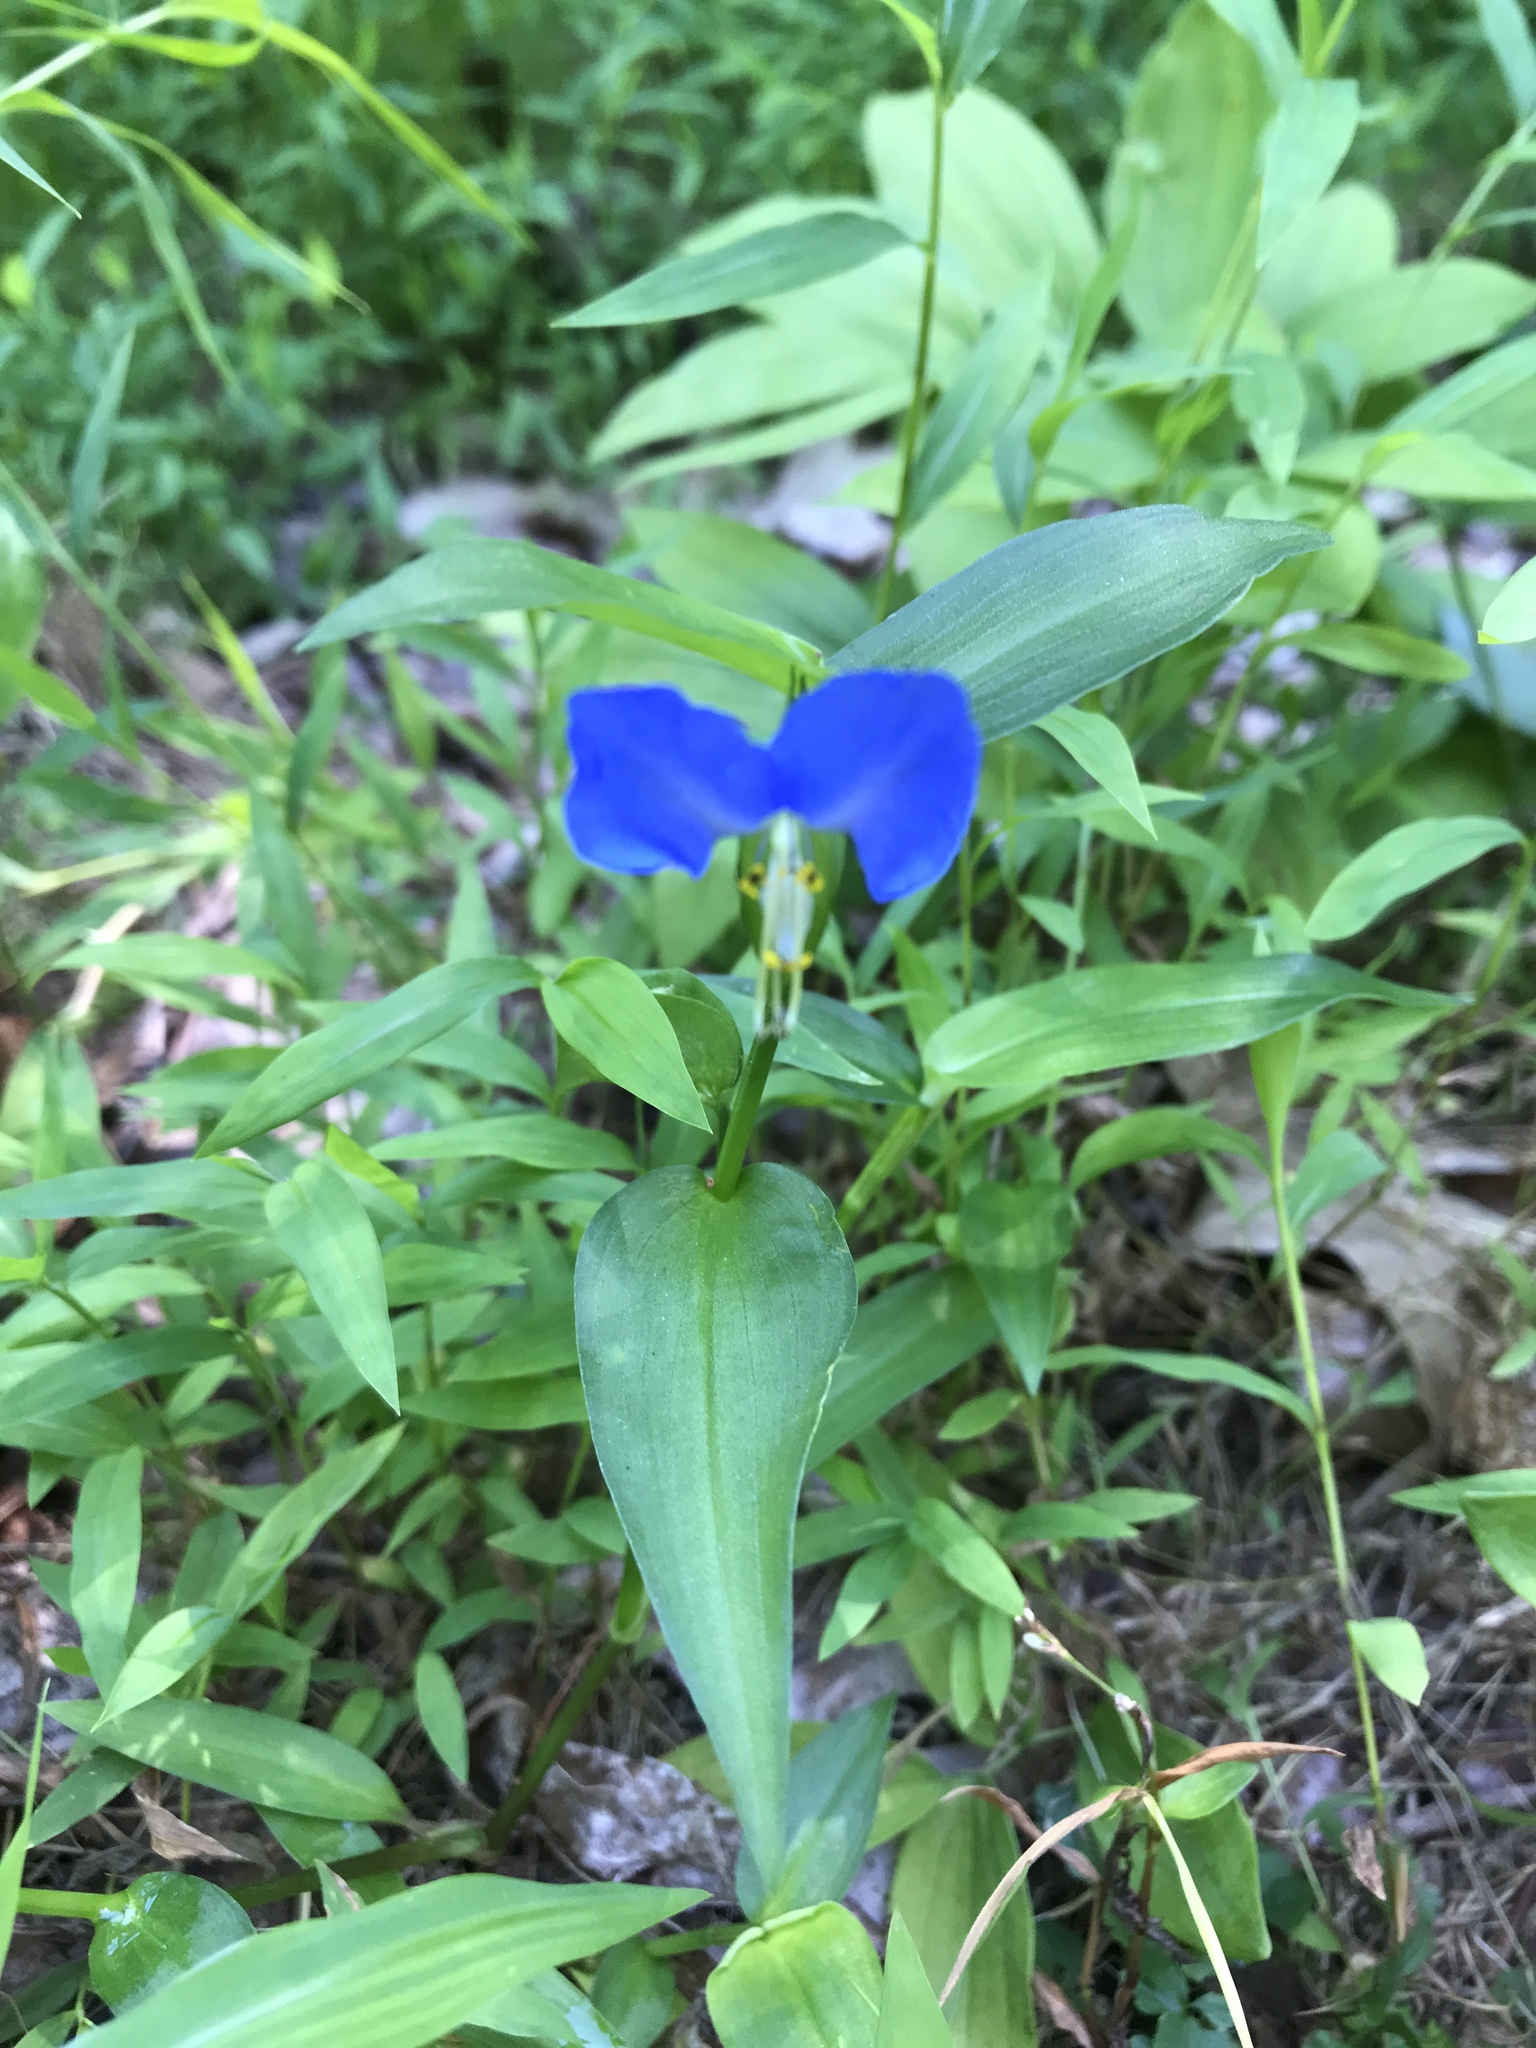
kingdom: Plantae
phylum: Tracheophyta
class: Liliopsida
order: Commelinales
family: Commelinaceae
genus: Commelina
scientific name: Commelina communis
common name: Asiatic dayflower
